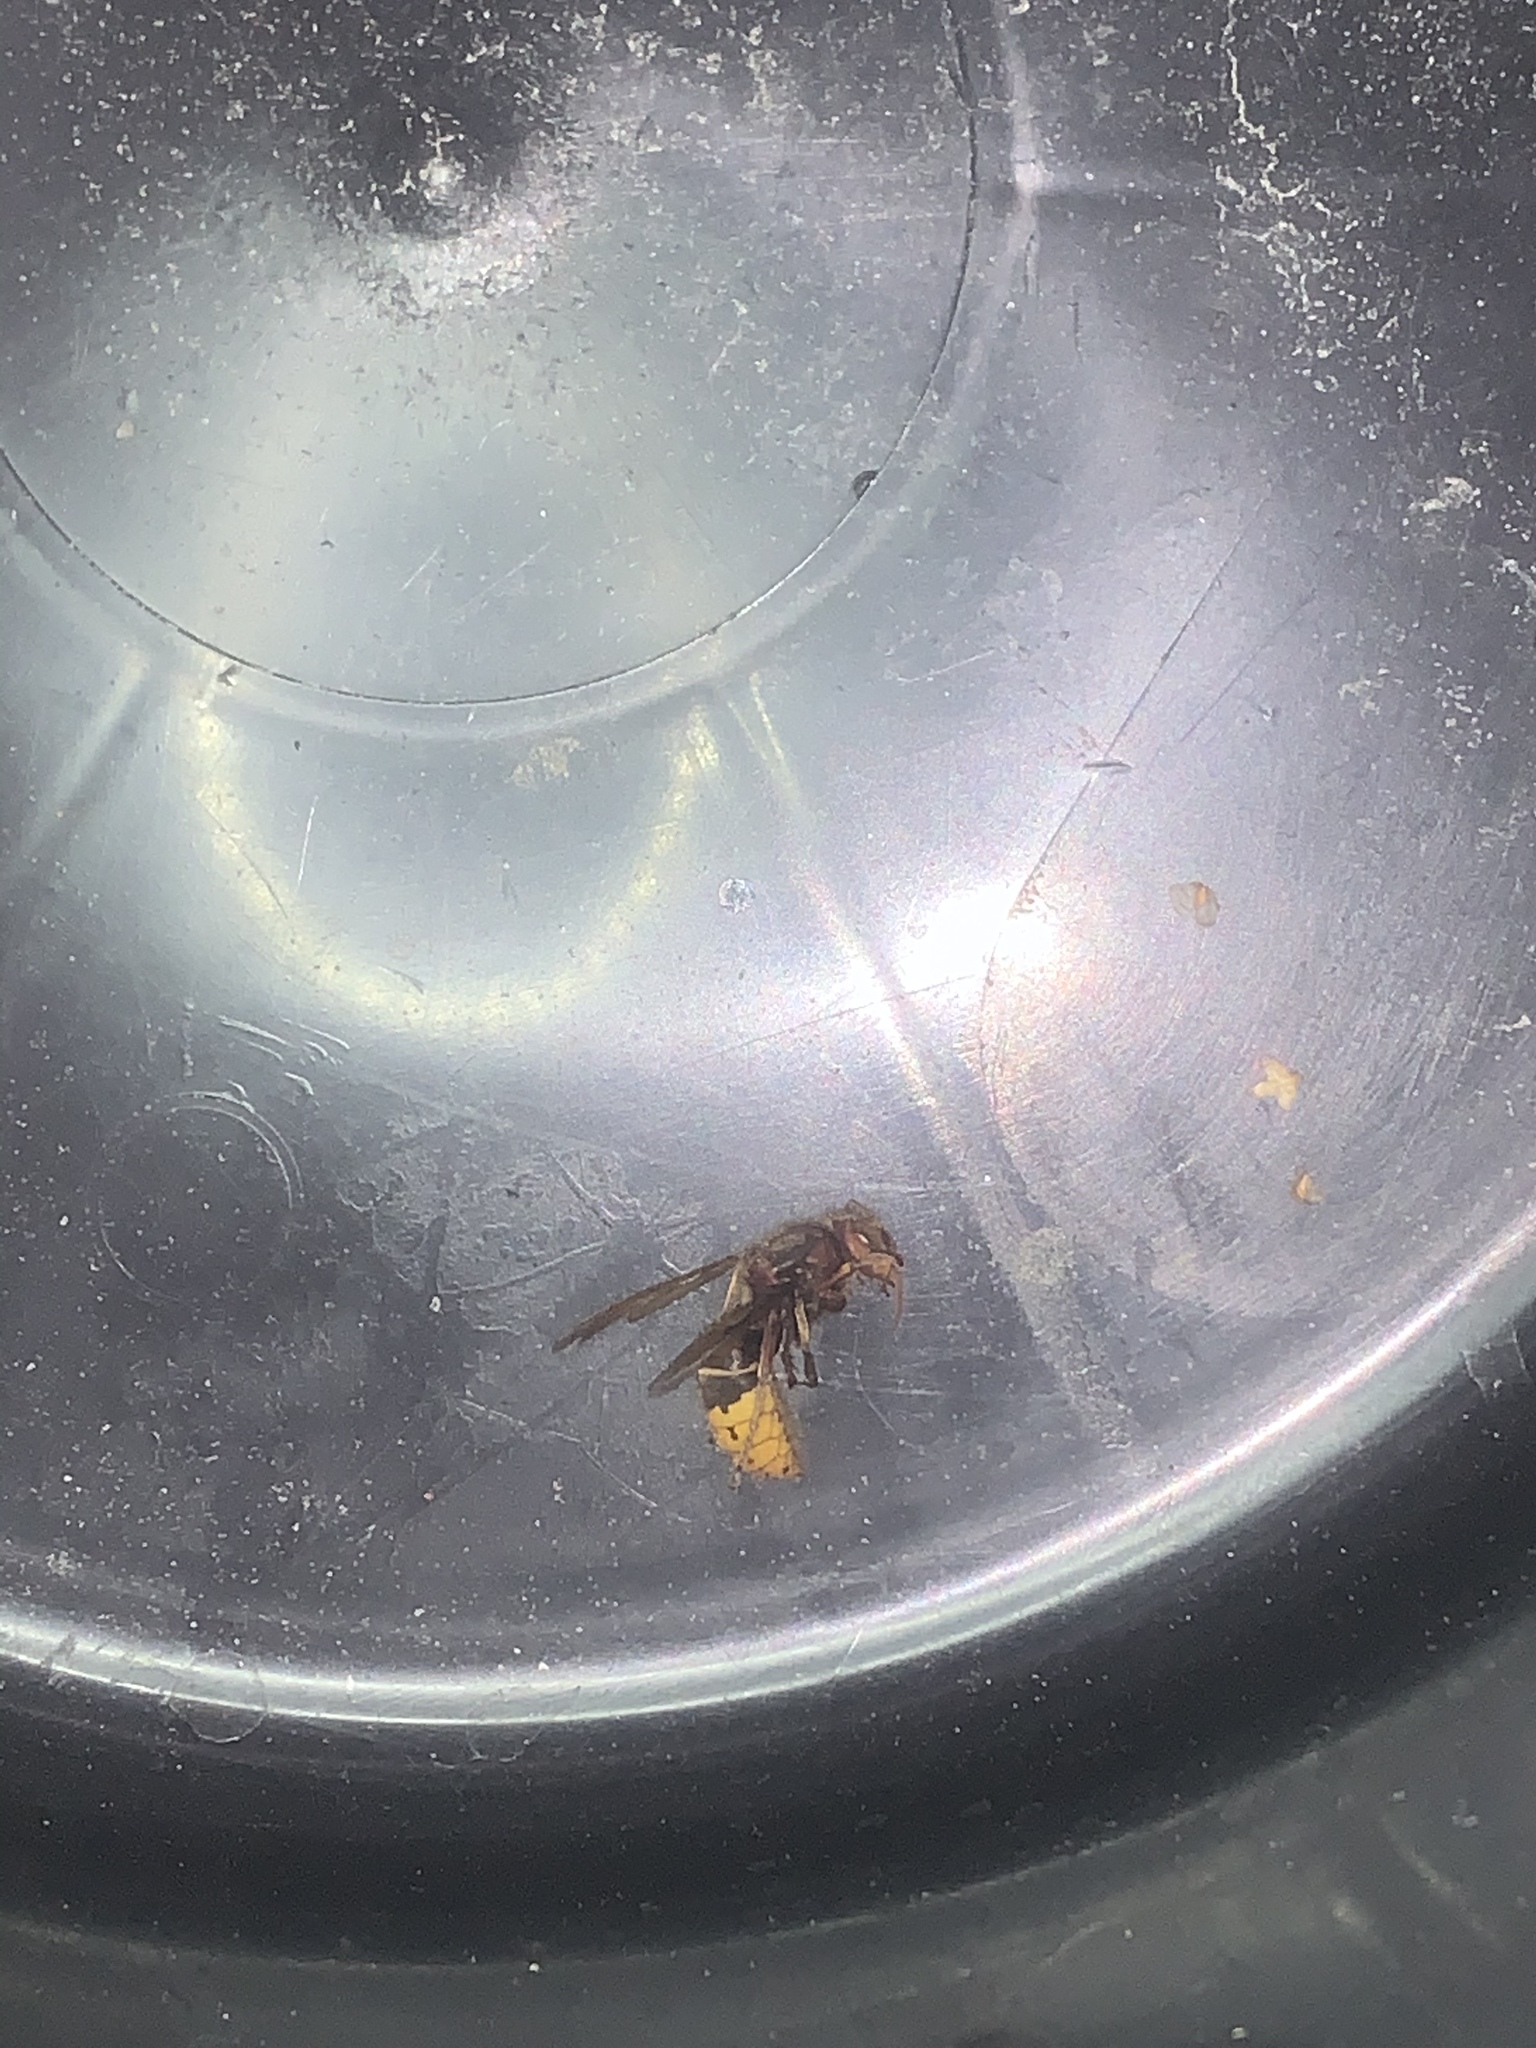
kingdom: Animalia
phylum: Arthropoda
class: Insecta
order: Hymenoptera
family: Vespidae
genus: Vespa
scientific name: Vespa crabro
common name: Hornet
